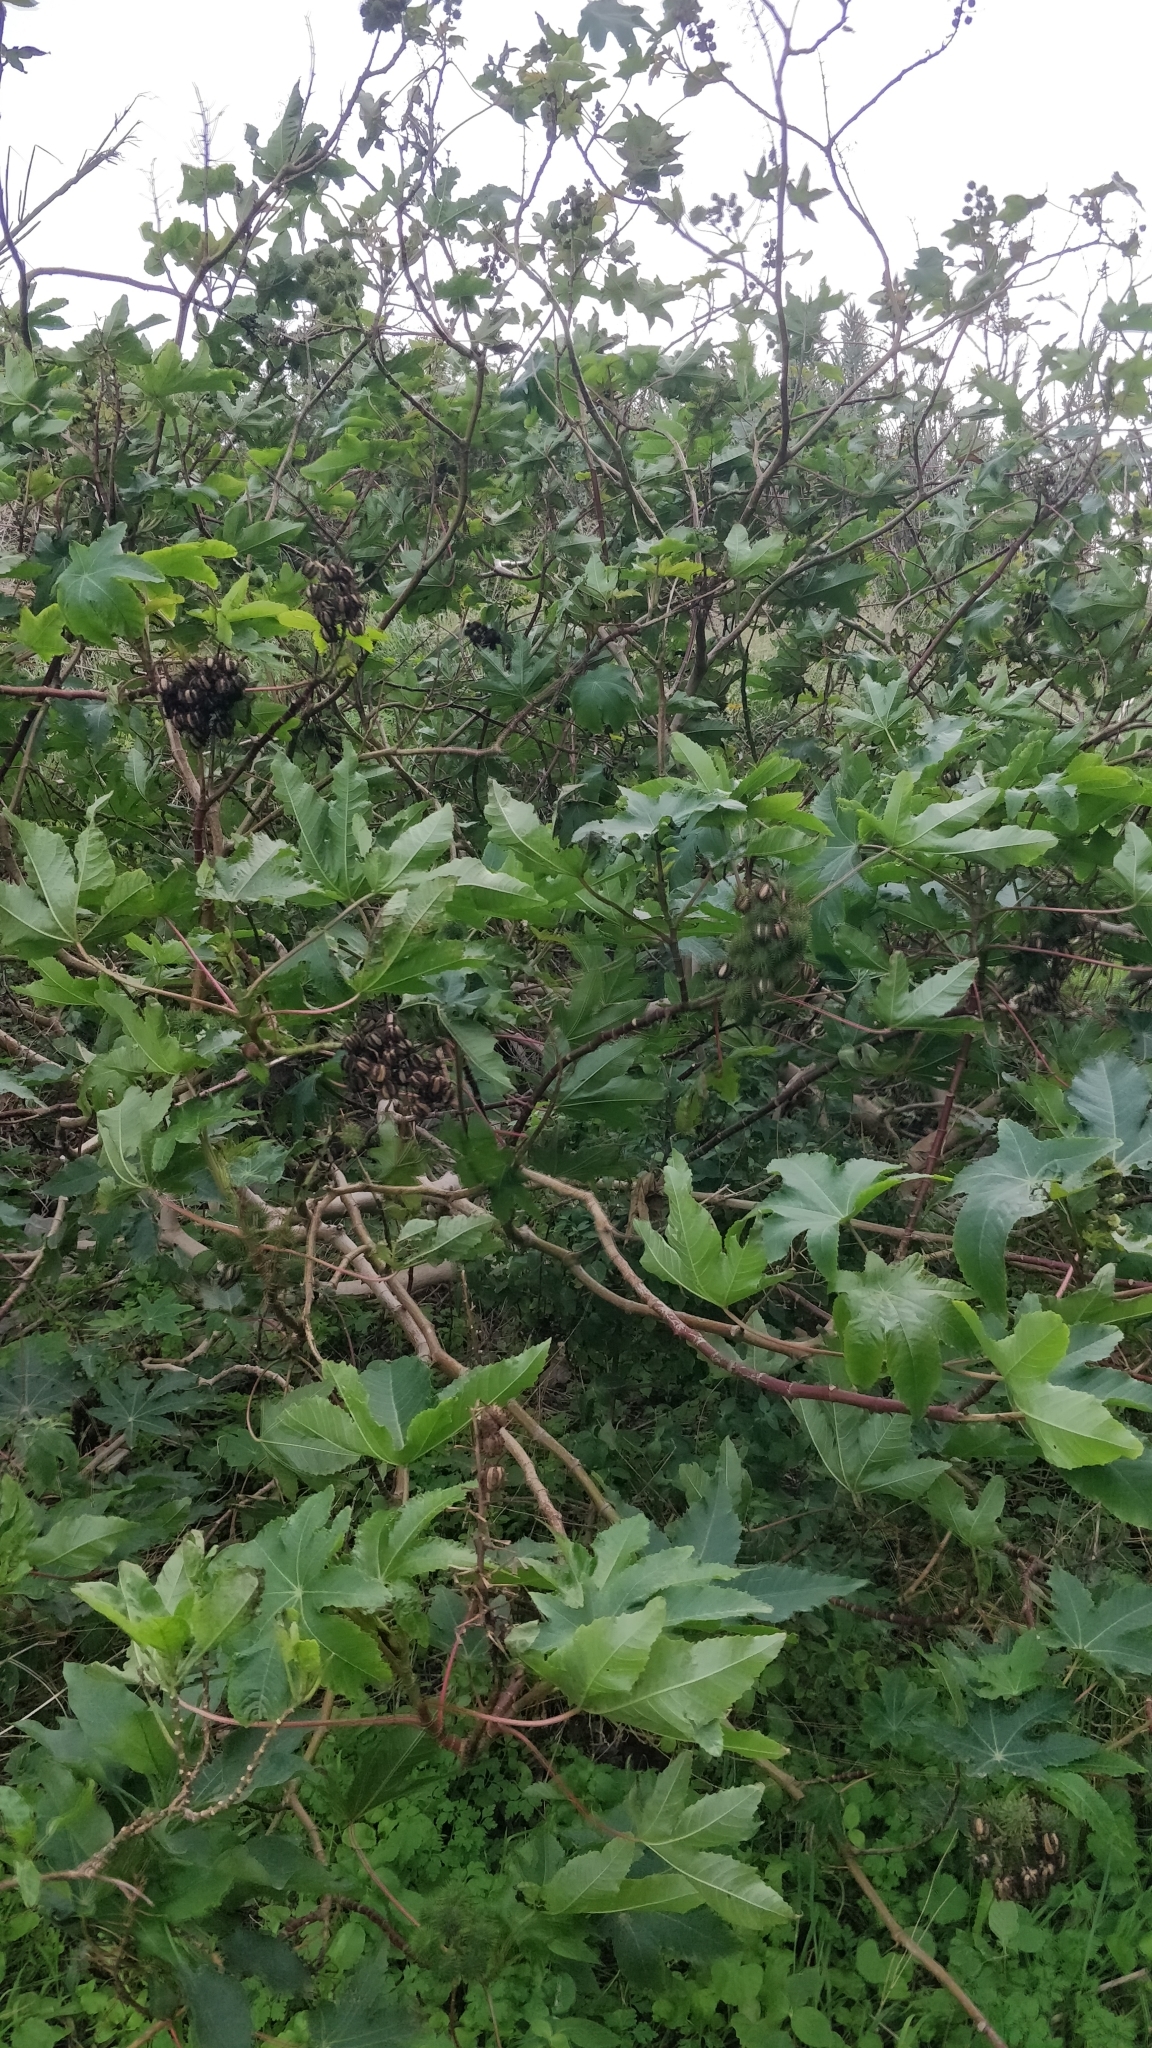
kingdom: Plantae
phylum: Tracheophyta
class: Magnoliopsida
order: Malpighiales
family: Euphorbiaceae
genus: Ricinus
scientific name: Ricinus communis
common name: Castor-oil-plant
